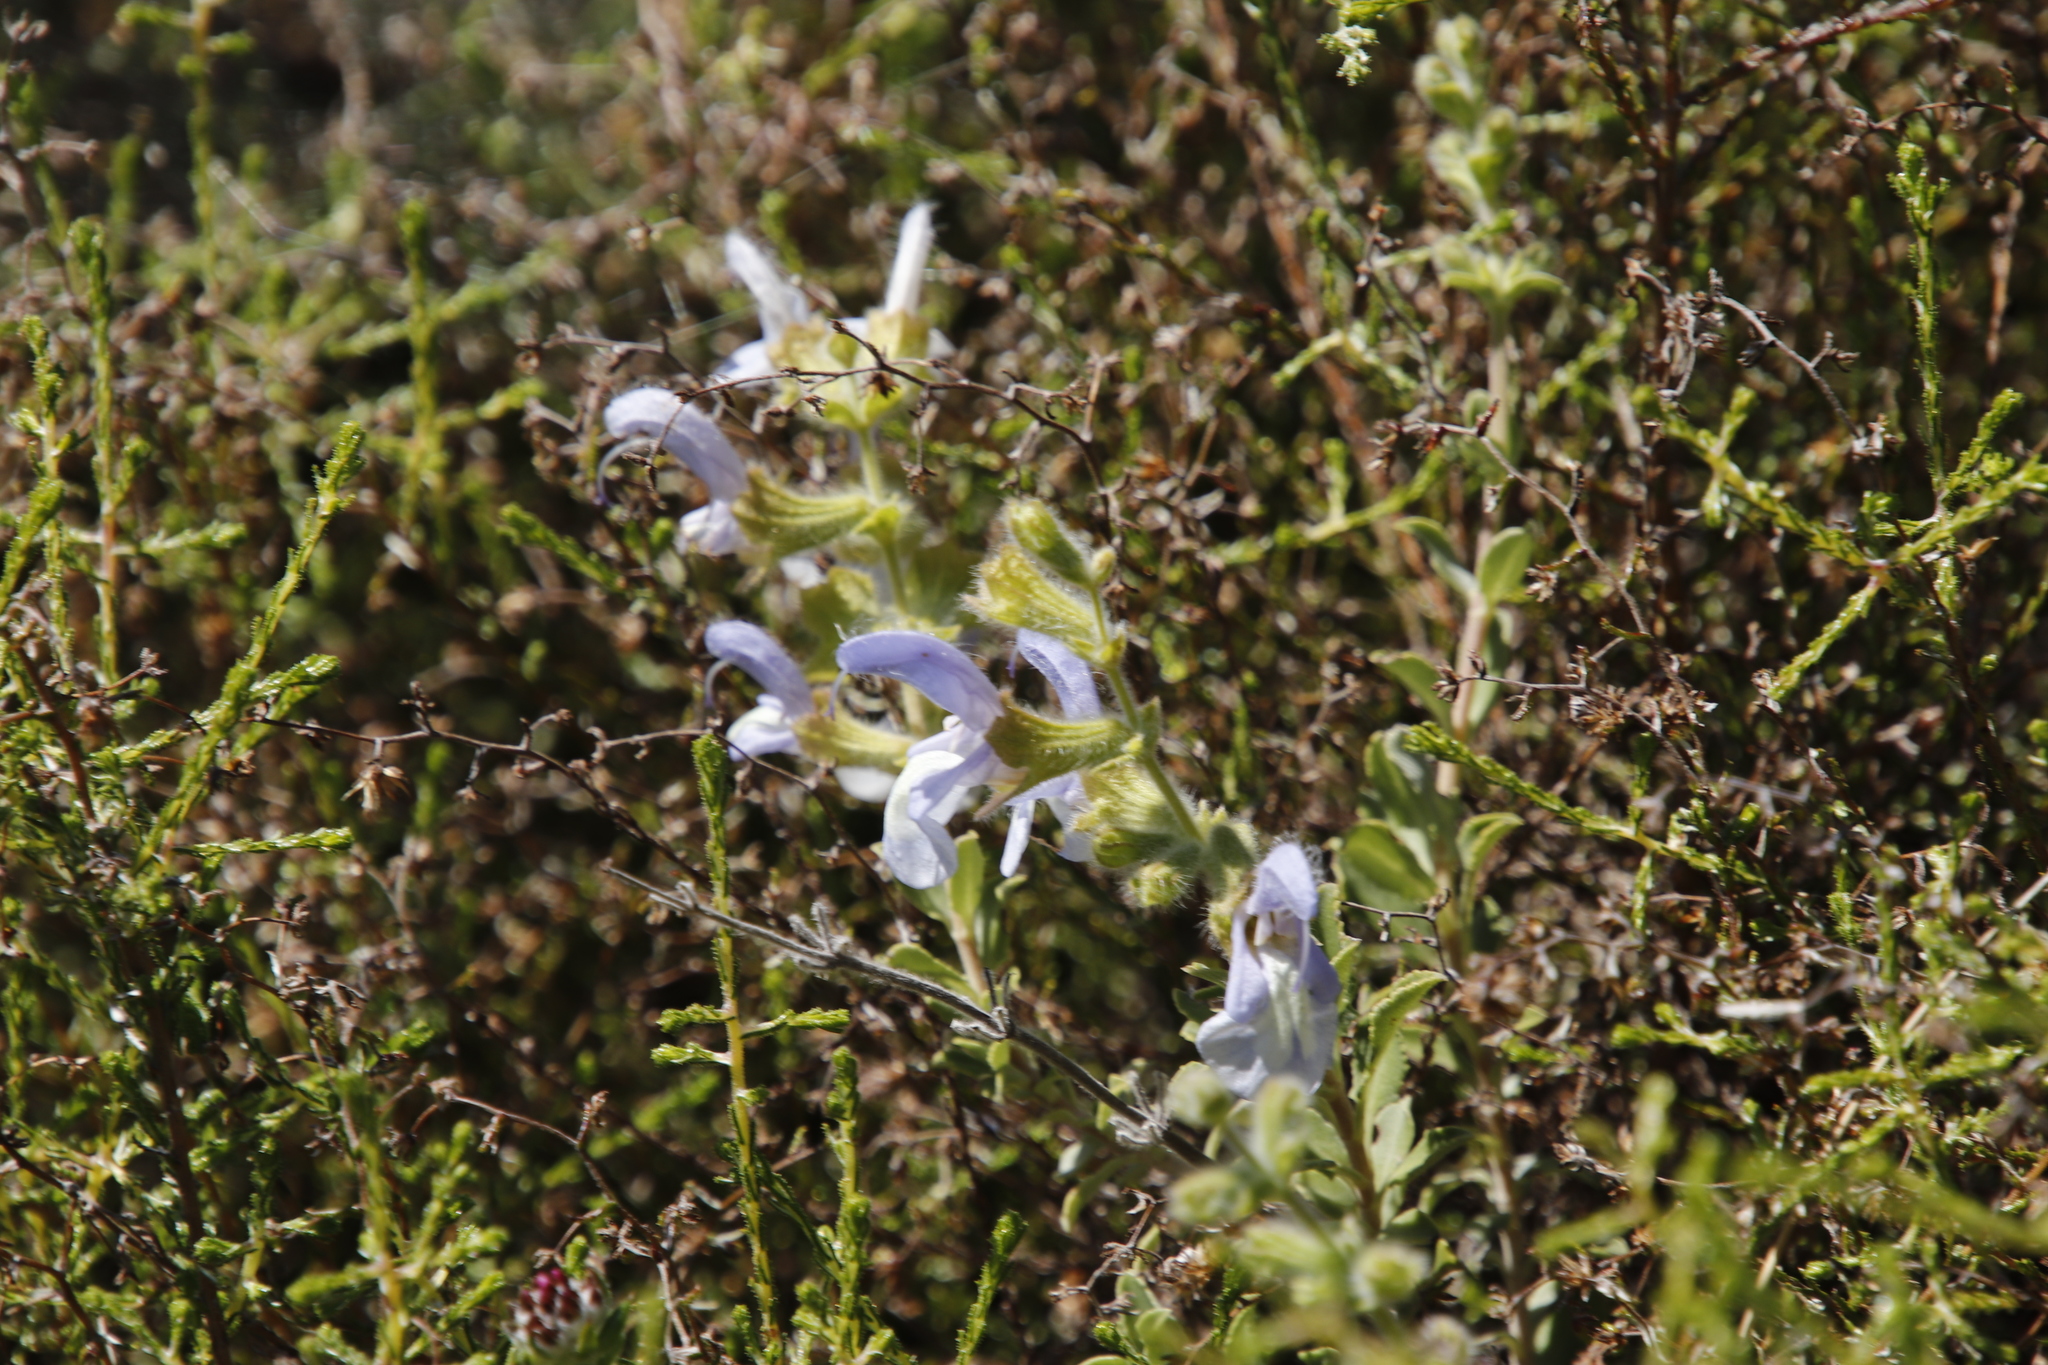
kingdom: Plantae
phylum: Tracheophyta
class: Magnoliopsida
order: Lamiales
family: Lamiaceae
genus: Salvia
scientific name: Salvia africana
